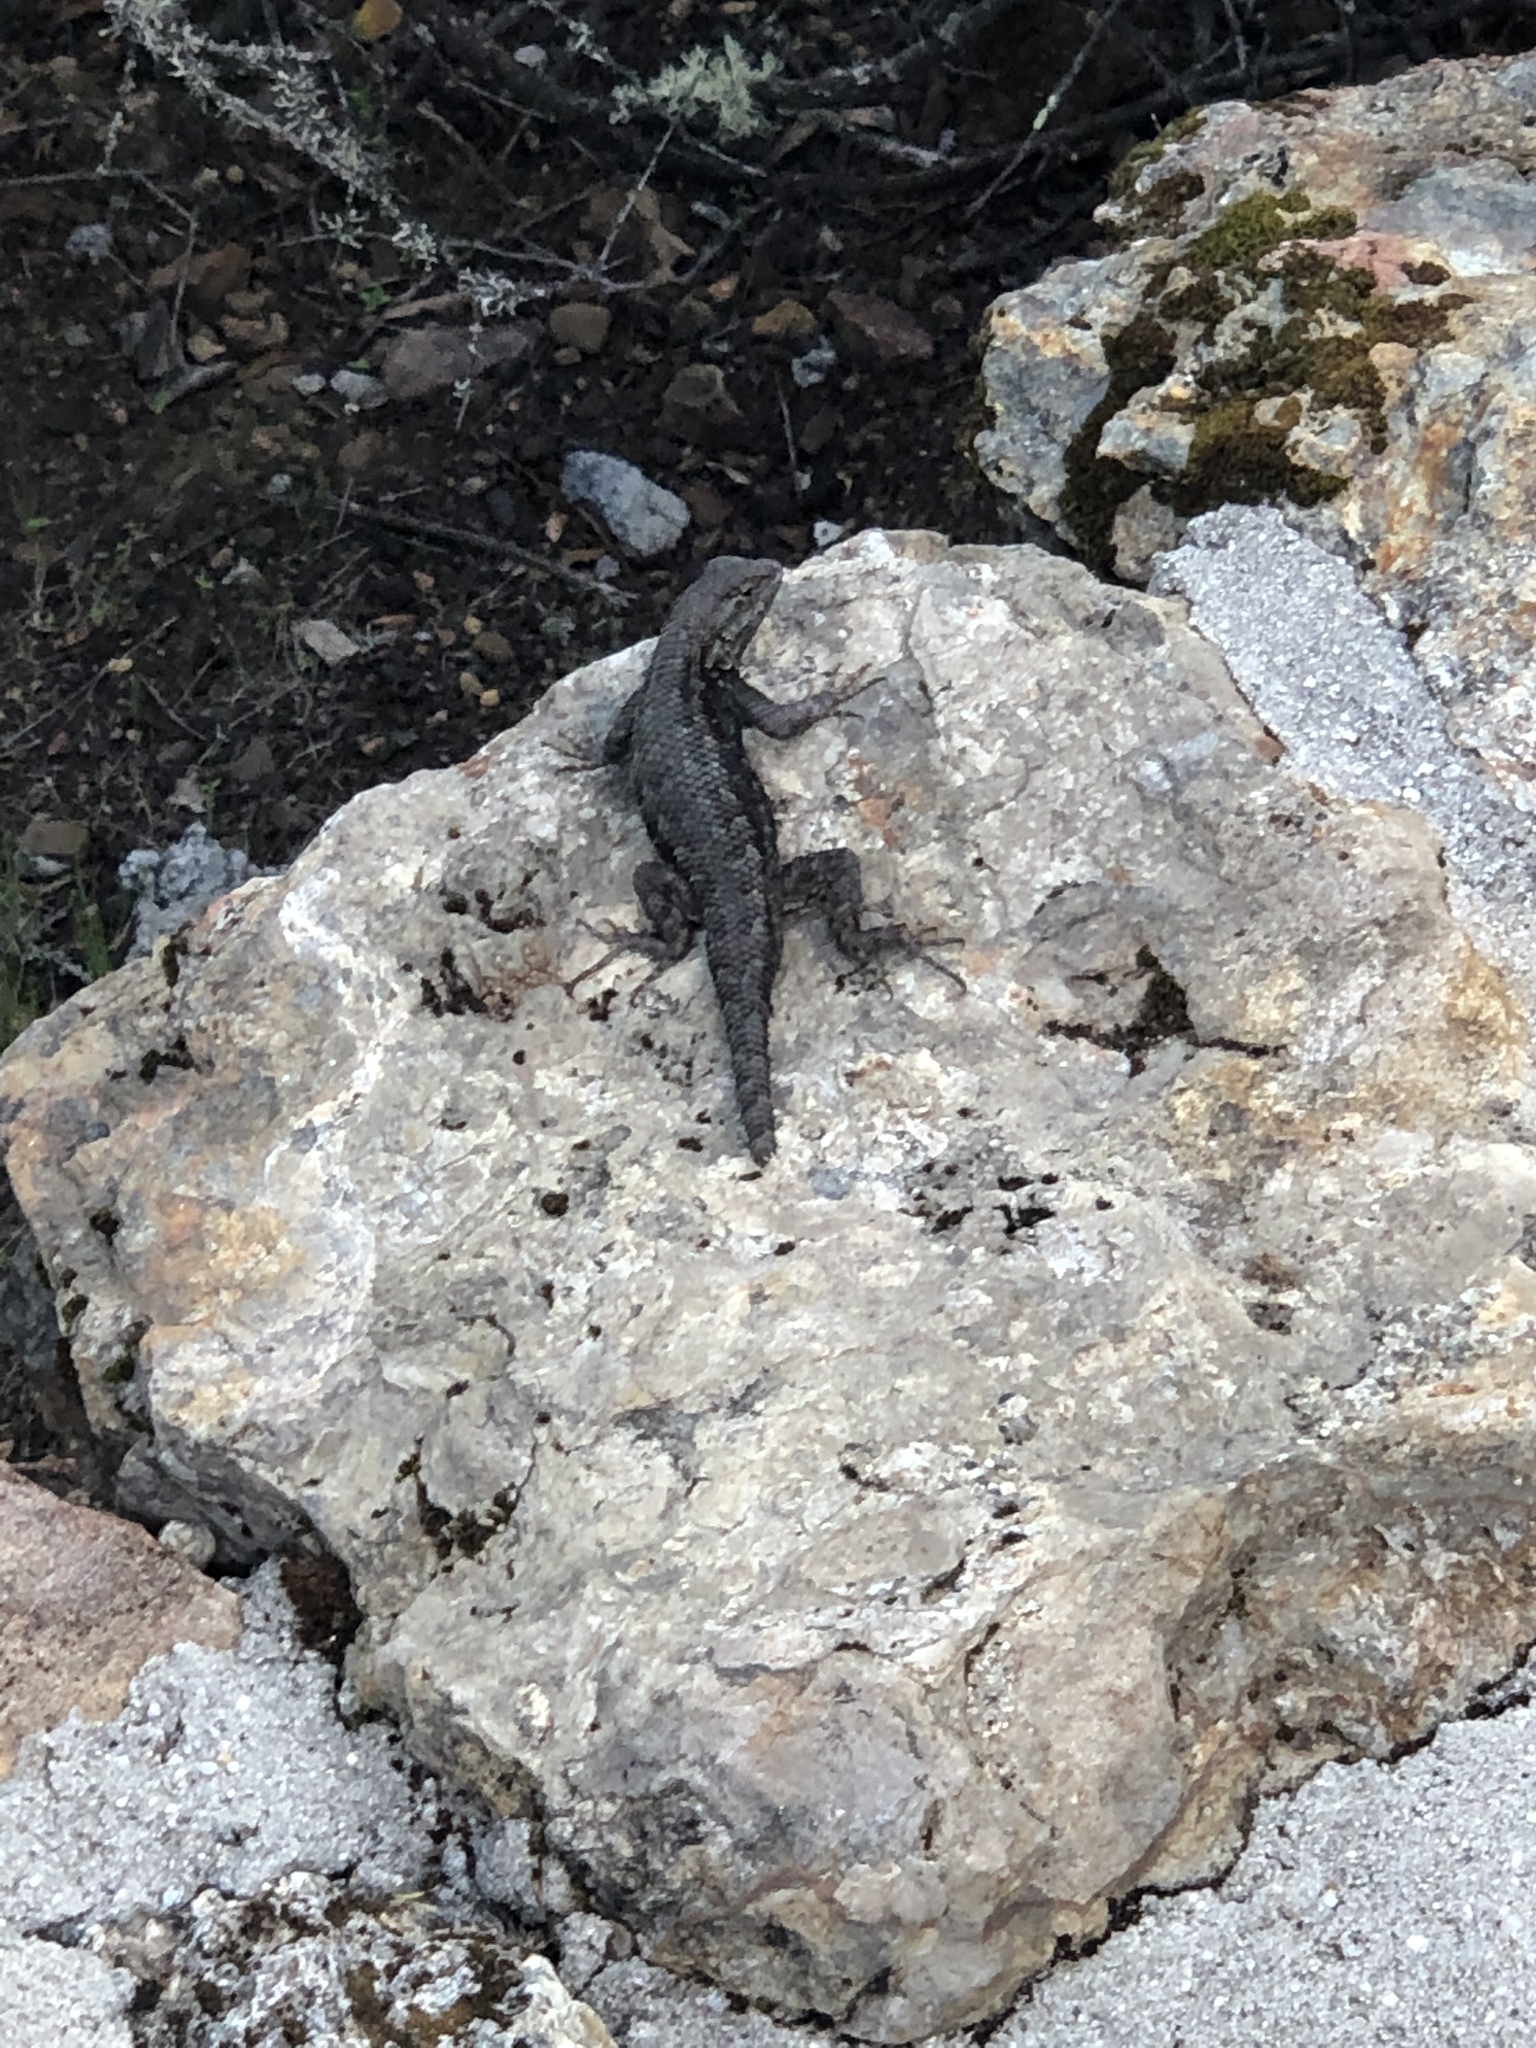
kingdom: Animalia
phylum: Chordata
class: Squamata
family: Phrynosomatidae
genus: Sceloporus
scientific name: Sceloporus occidentalis
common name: Western fence lizard
